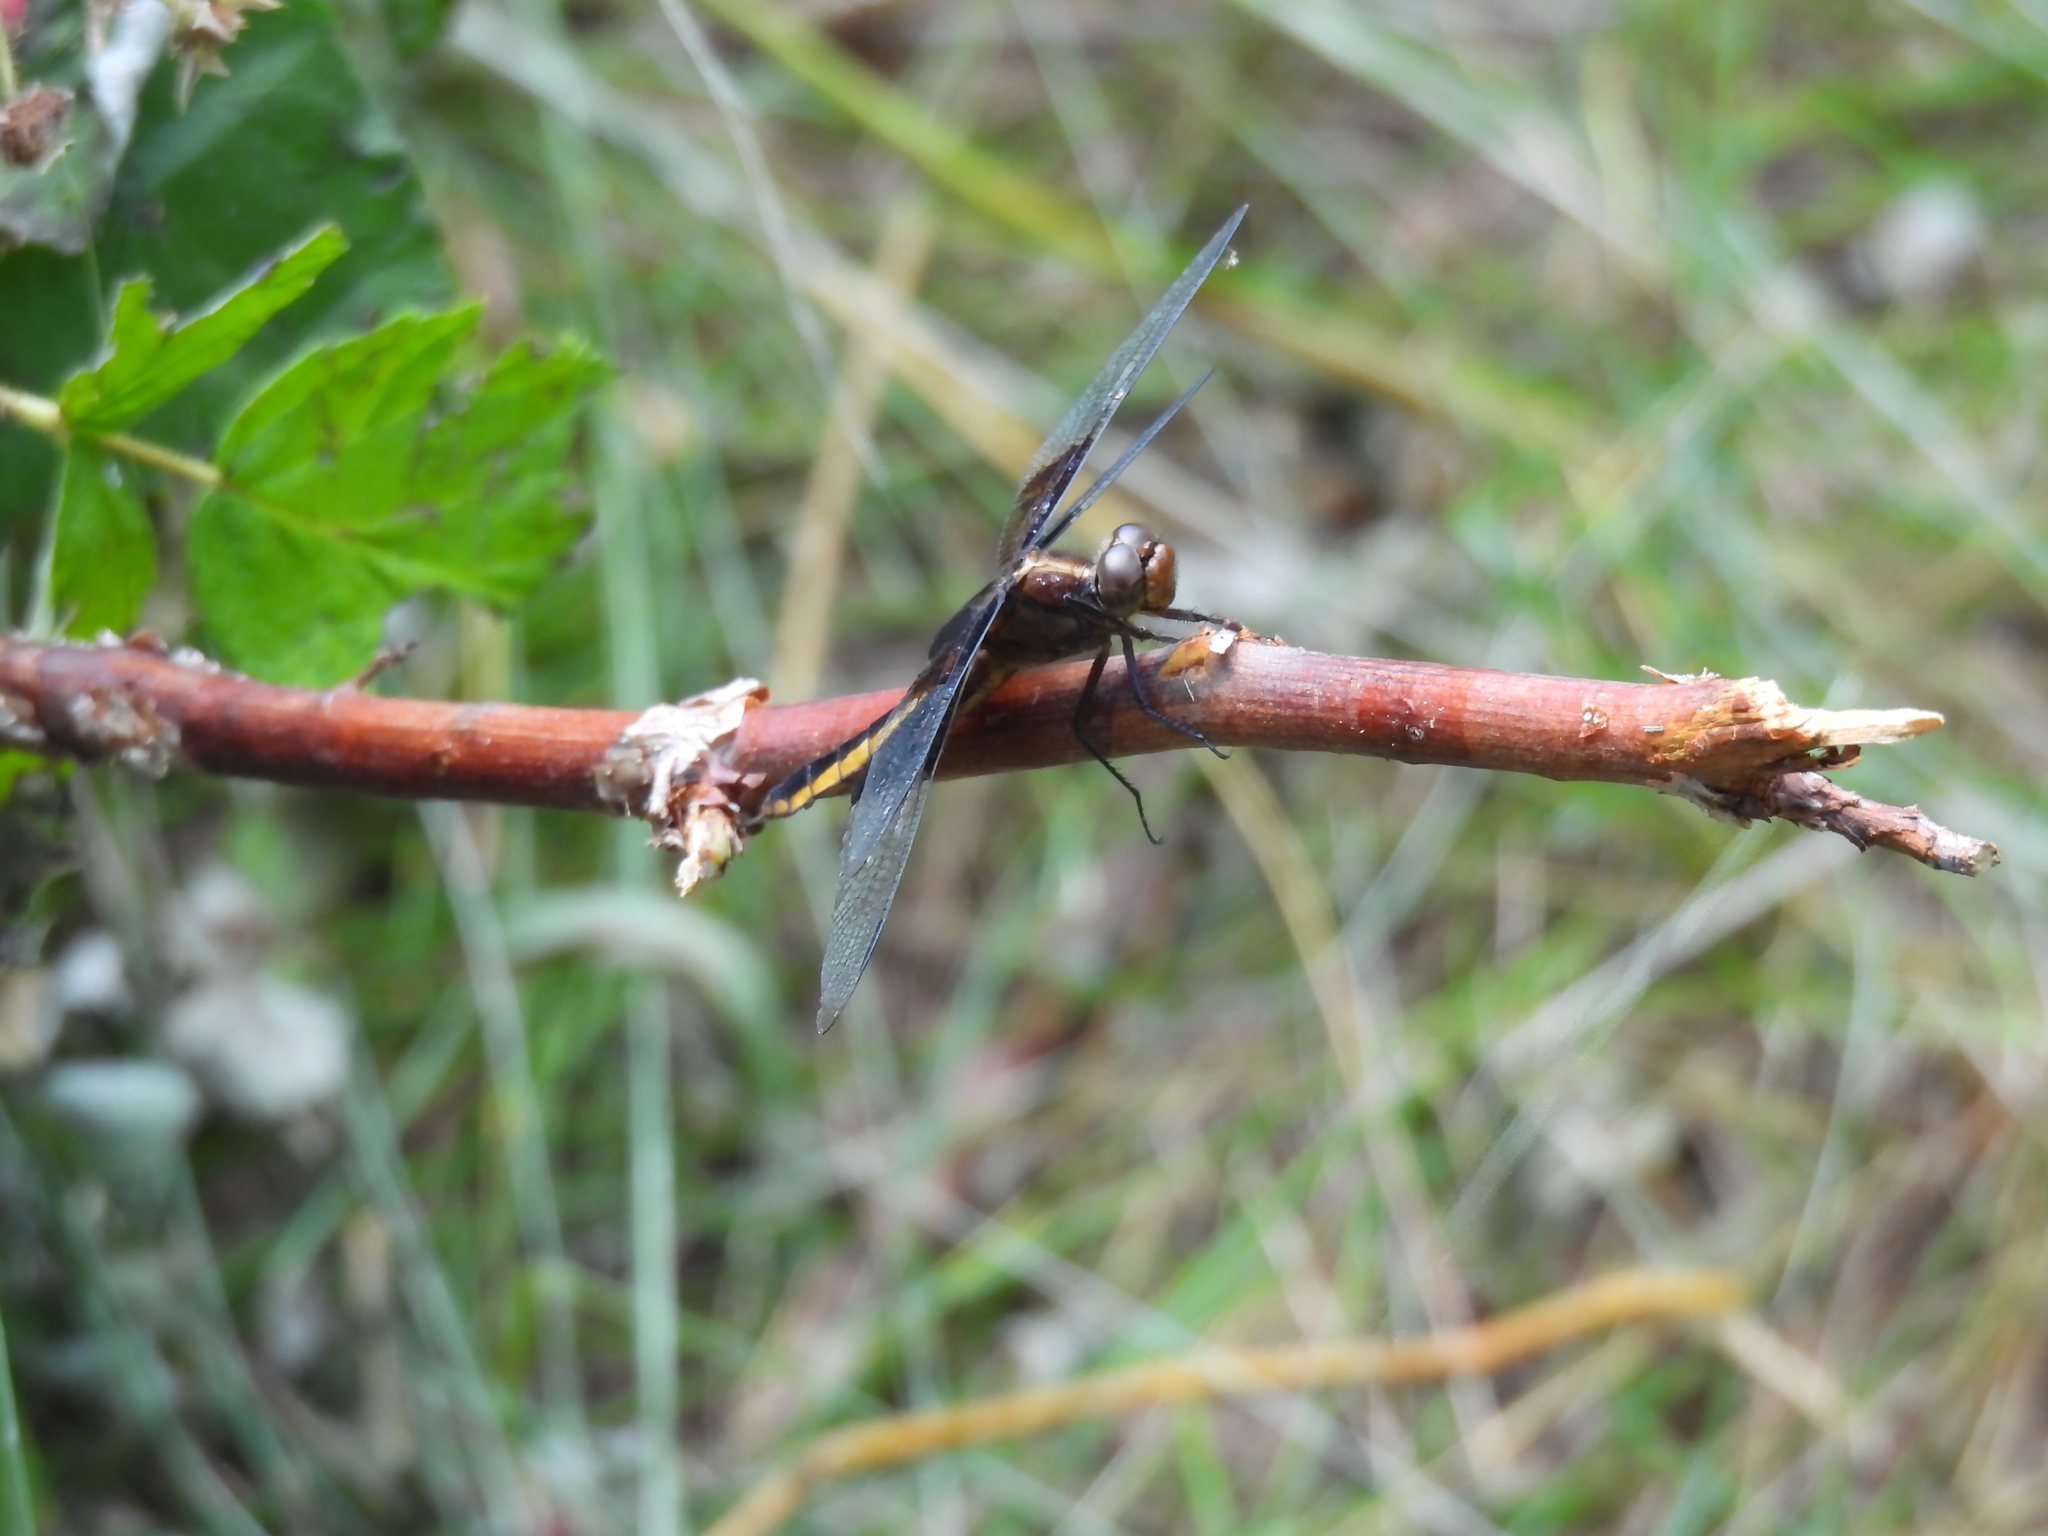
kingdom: Animalia
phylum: Arthropoda
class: Insecta
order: Odonata
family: Libellulidae
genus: Libellula
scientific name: Libellula luctuosa
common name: Widow skimmer
